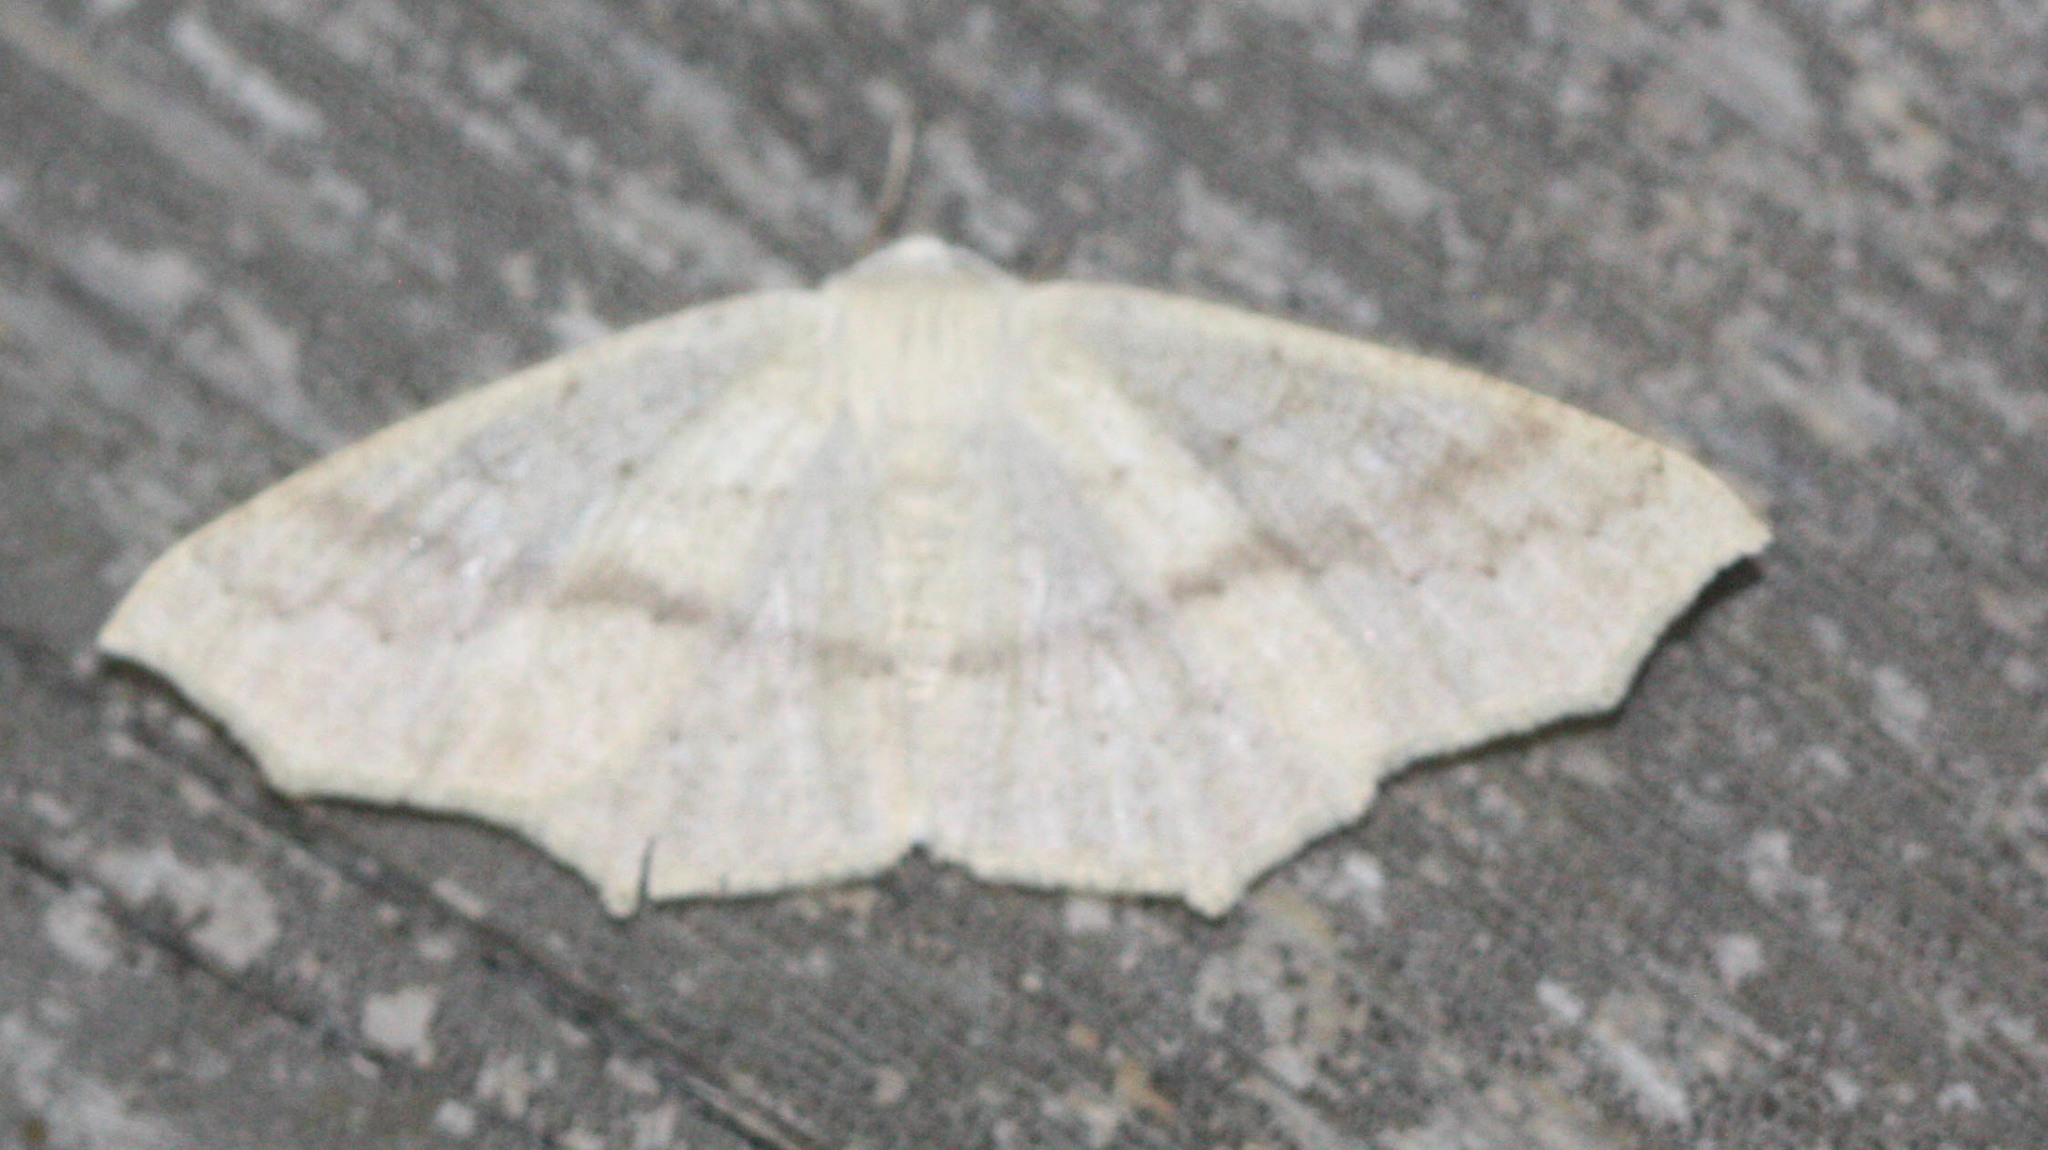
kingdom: Animalia
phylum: Arthropoda
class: Insecta
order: Lepidoptera
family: Geometridae
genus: Sabulodes
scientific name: Sabulodes aegrotata
